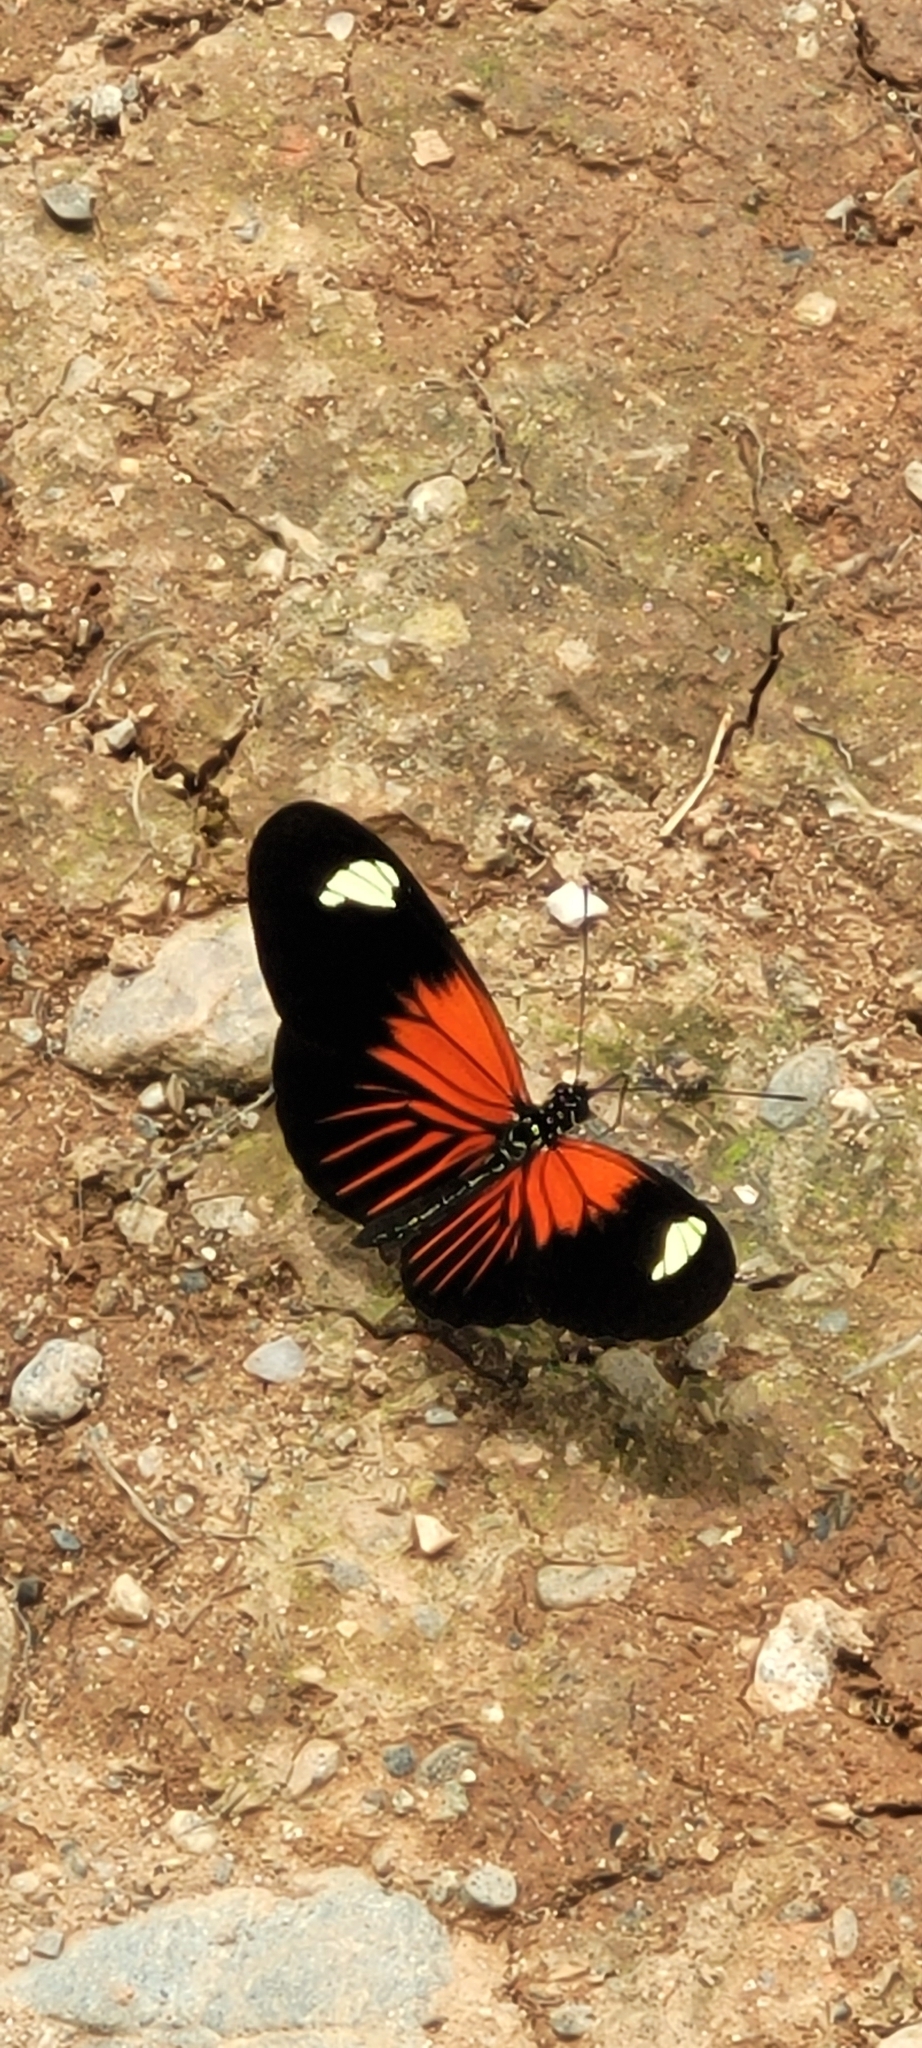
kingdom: Animalia
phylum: Arthropoda
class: Insecta
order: Lepidoptera
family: Nymphalidae
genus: Heliconius
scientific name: Heliconius erato
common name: Common patch longwing
